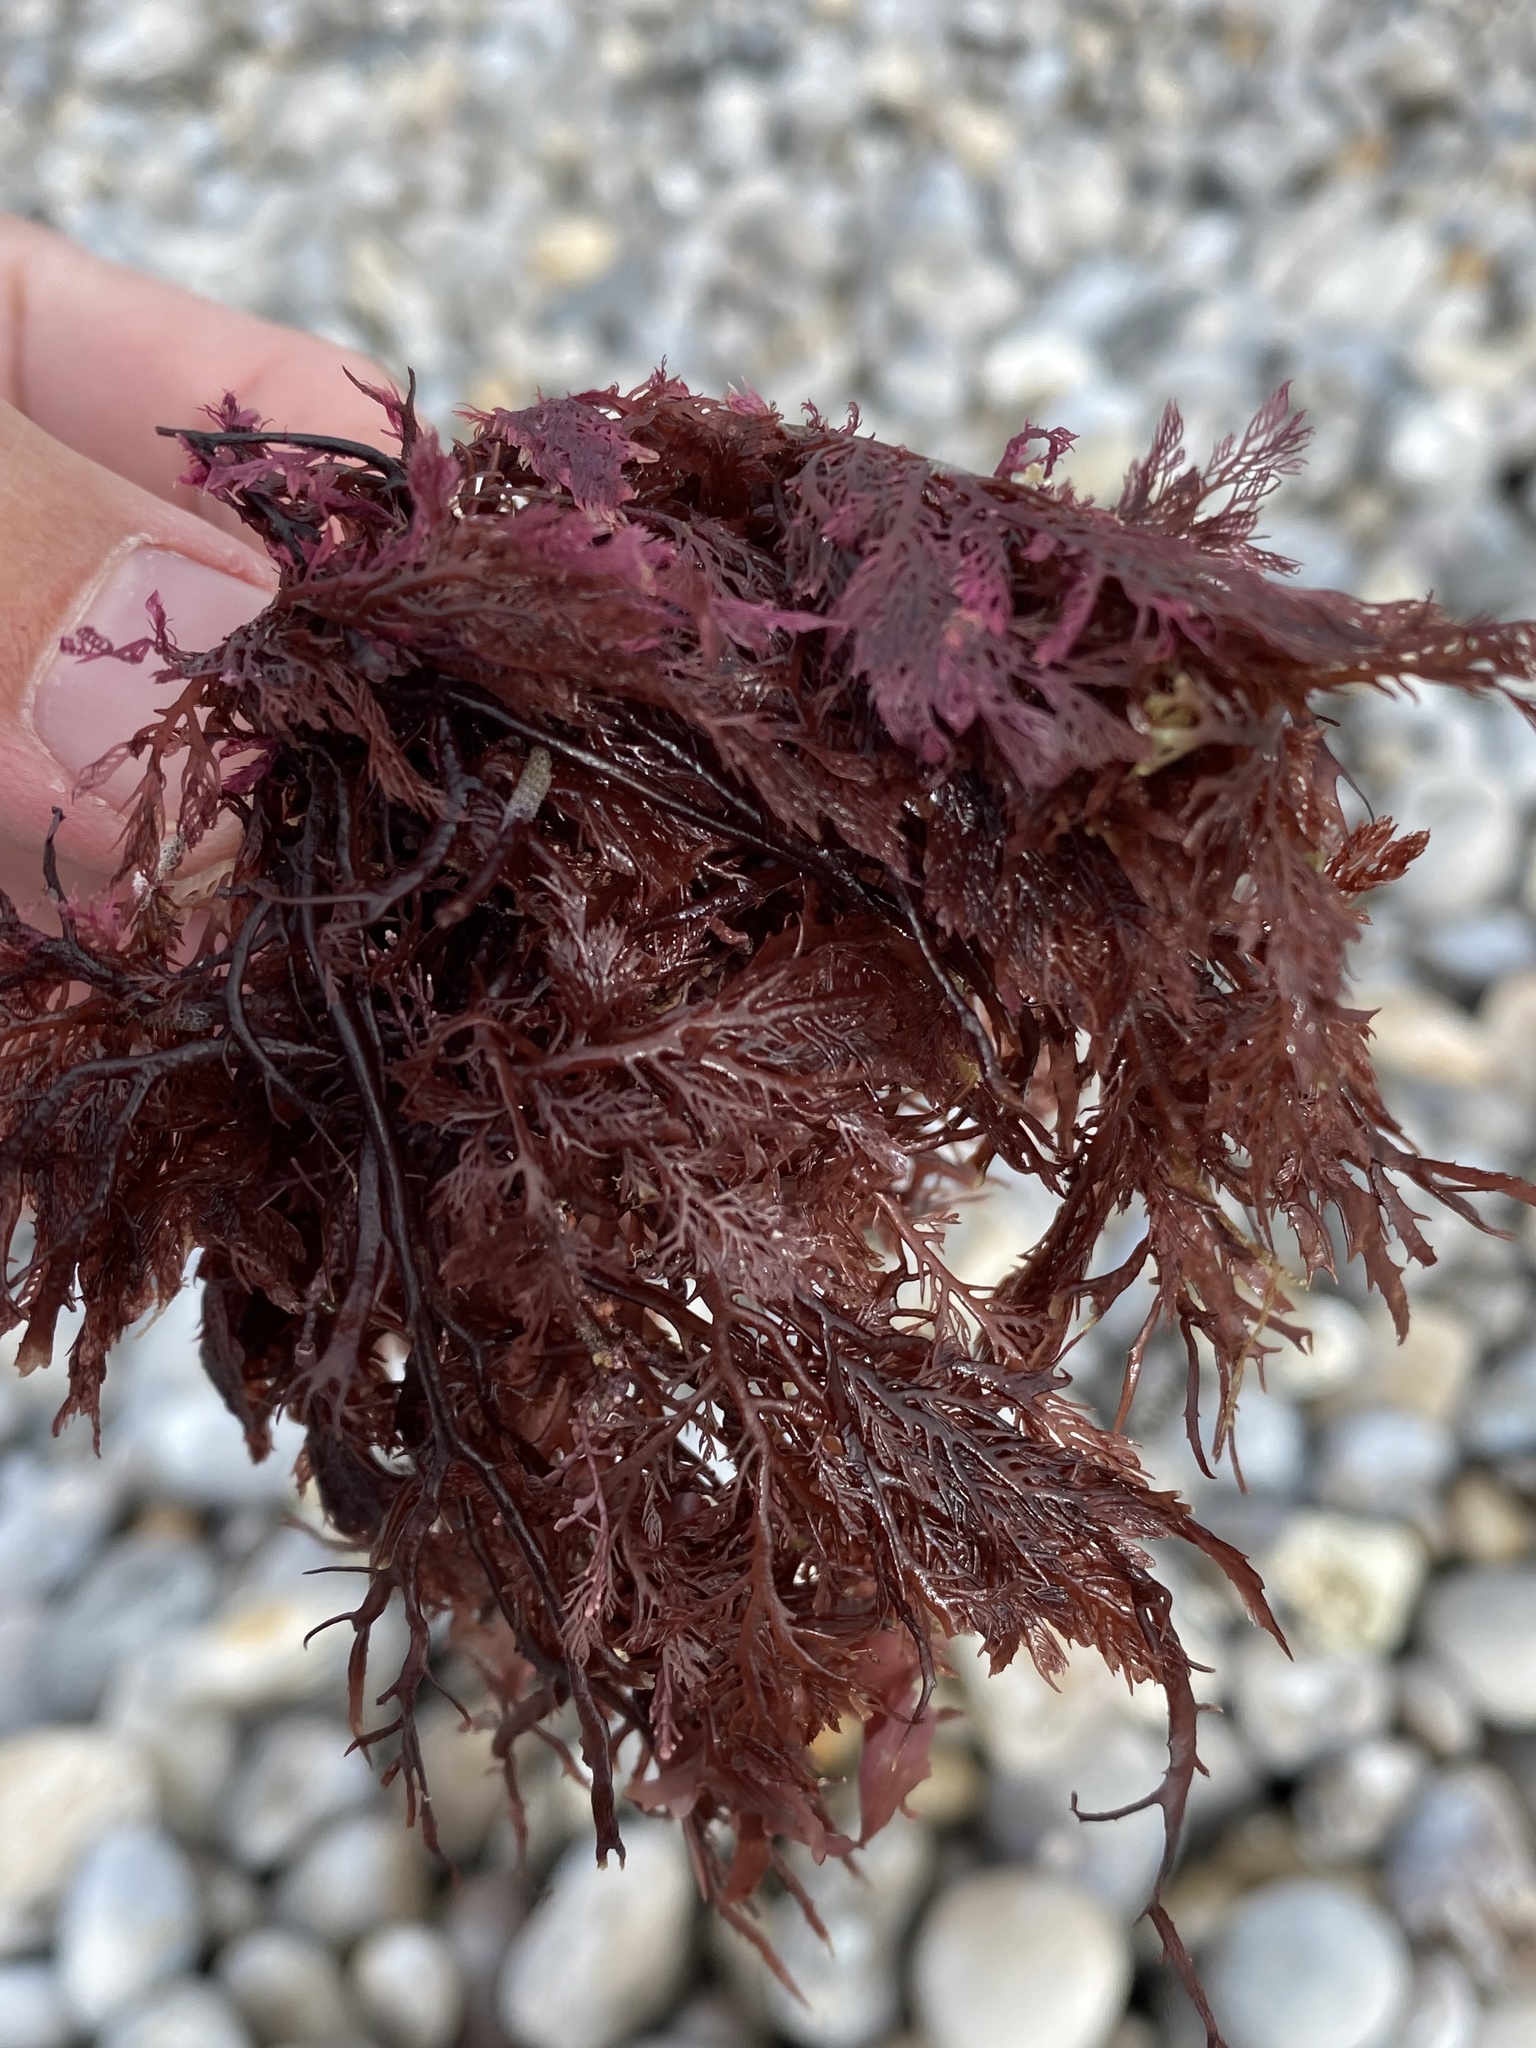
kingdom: Plantae
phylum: Rhodophyta
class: Florideophyceae
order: Plocamiales
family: Plocamiaceae
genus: Plocamium
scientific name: Plocamium cartilagineum
